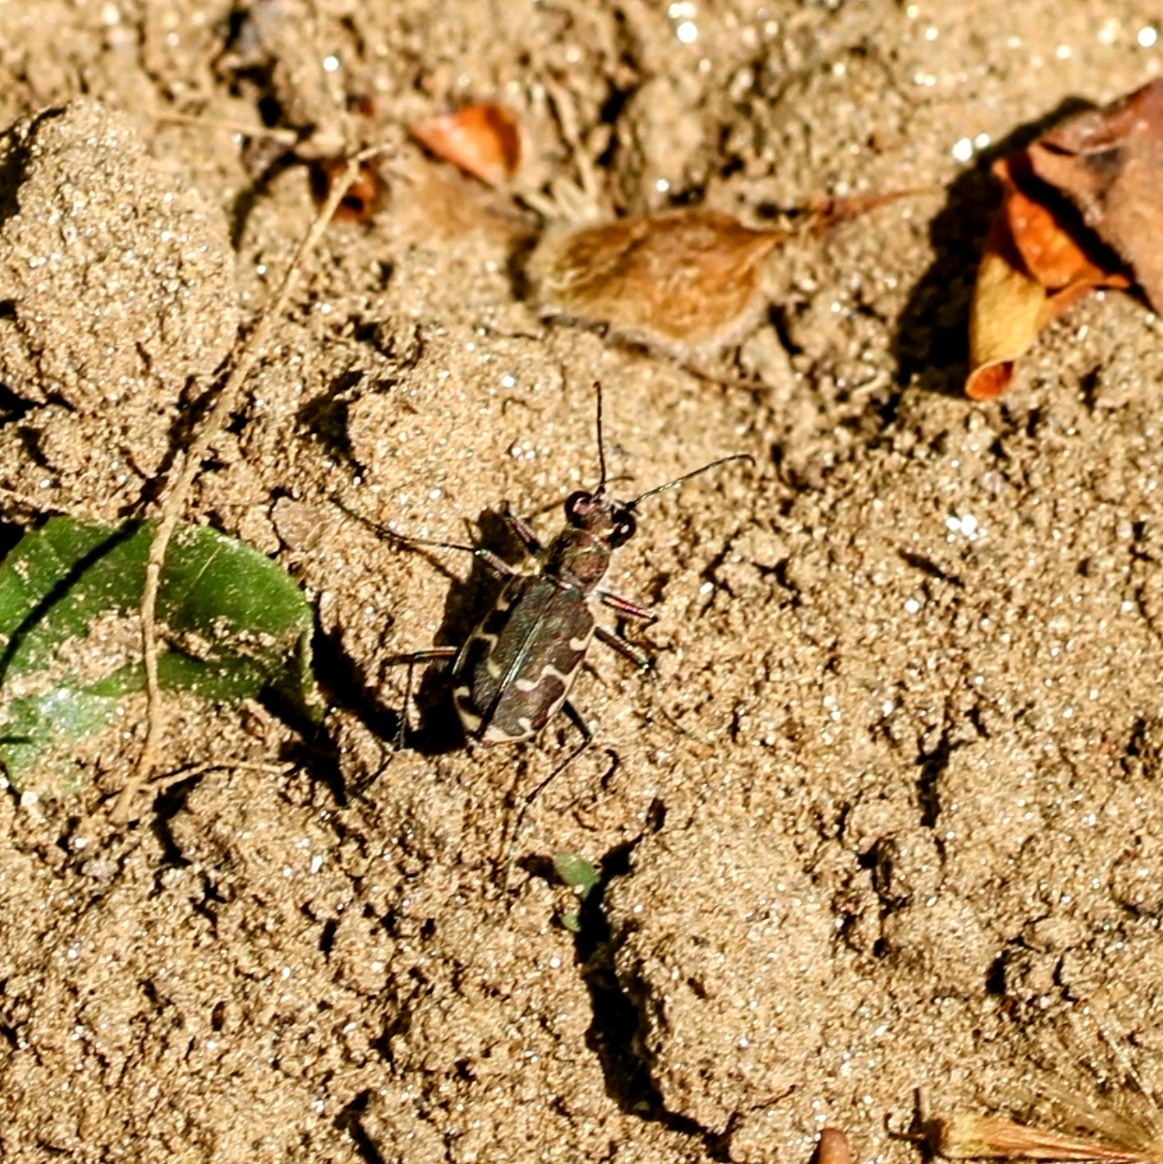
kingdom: Animalia
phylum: Arthropoda
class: Insecta
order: Coleoptera
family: Carabidae
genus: Cicindela
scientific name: Cicindela repanda
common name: Bronzed tiger beetle
